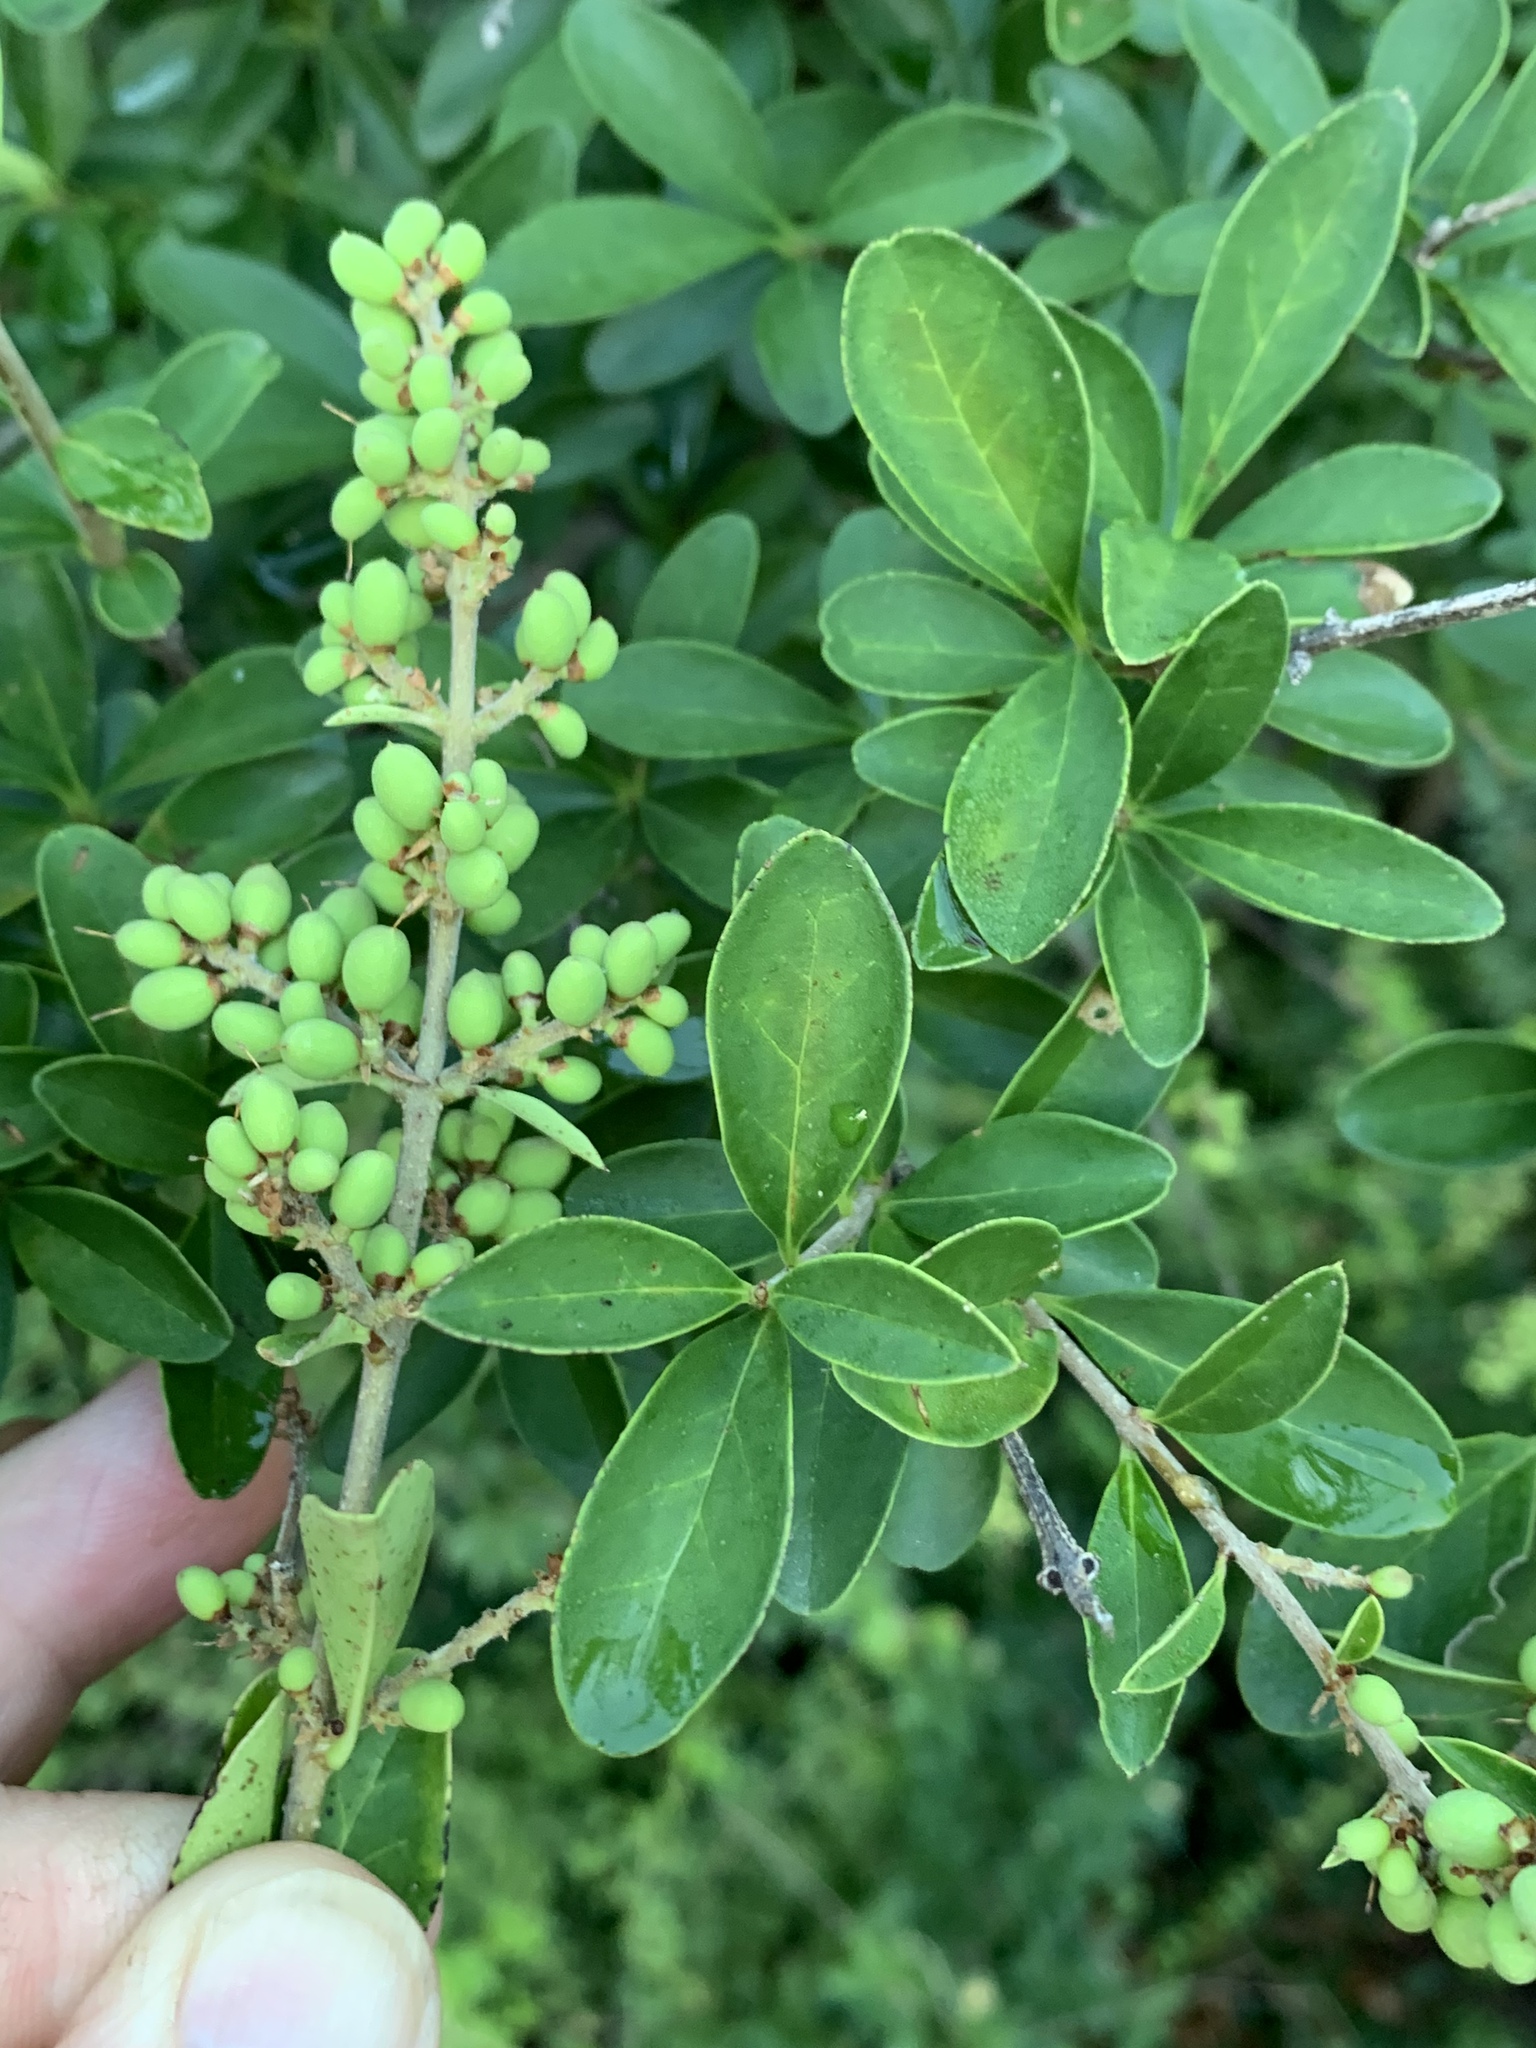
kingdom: Plantae
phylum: Tracheophyta
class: Magnoliopsida
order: Lamiales
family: Oleaceae
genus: Ligustrum
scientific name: Ligustrum quihoui
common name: Waxyleaf privet
